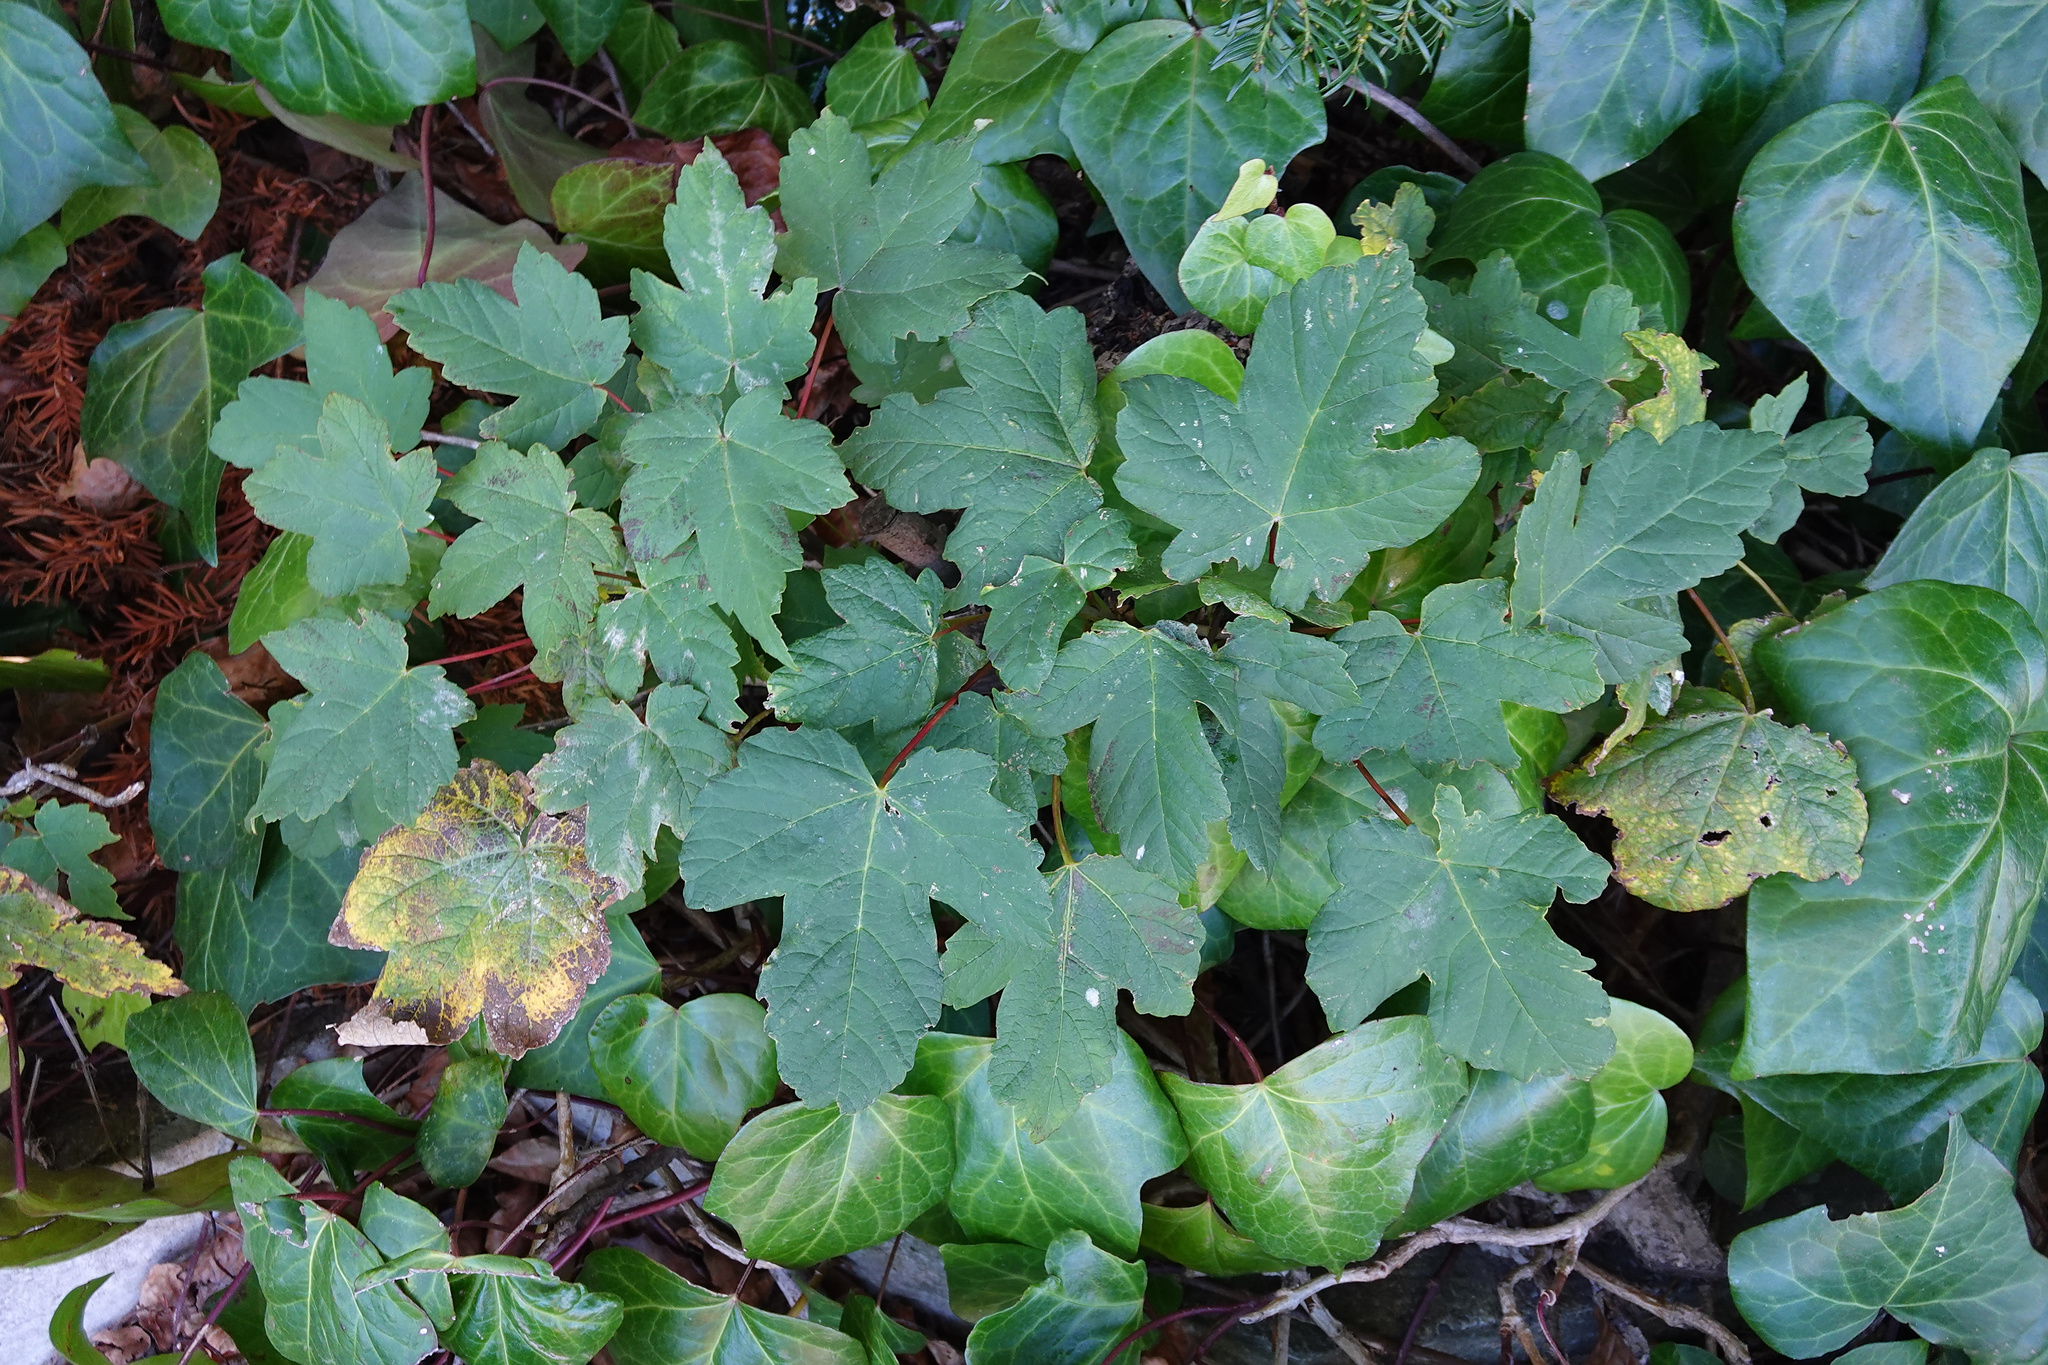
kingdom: Plantae
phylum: Tracheophyta
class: Magnoliopsida
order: Sapindales
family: Sapindaceae
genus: Acer
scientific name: Acer pseudoplatanus
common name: Sycamore
